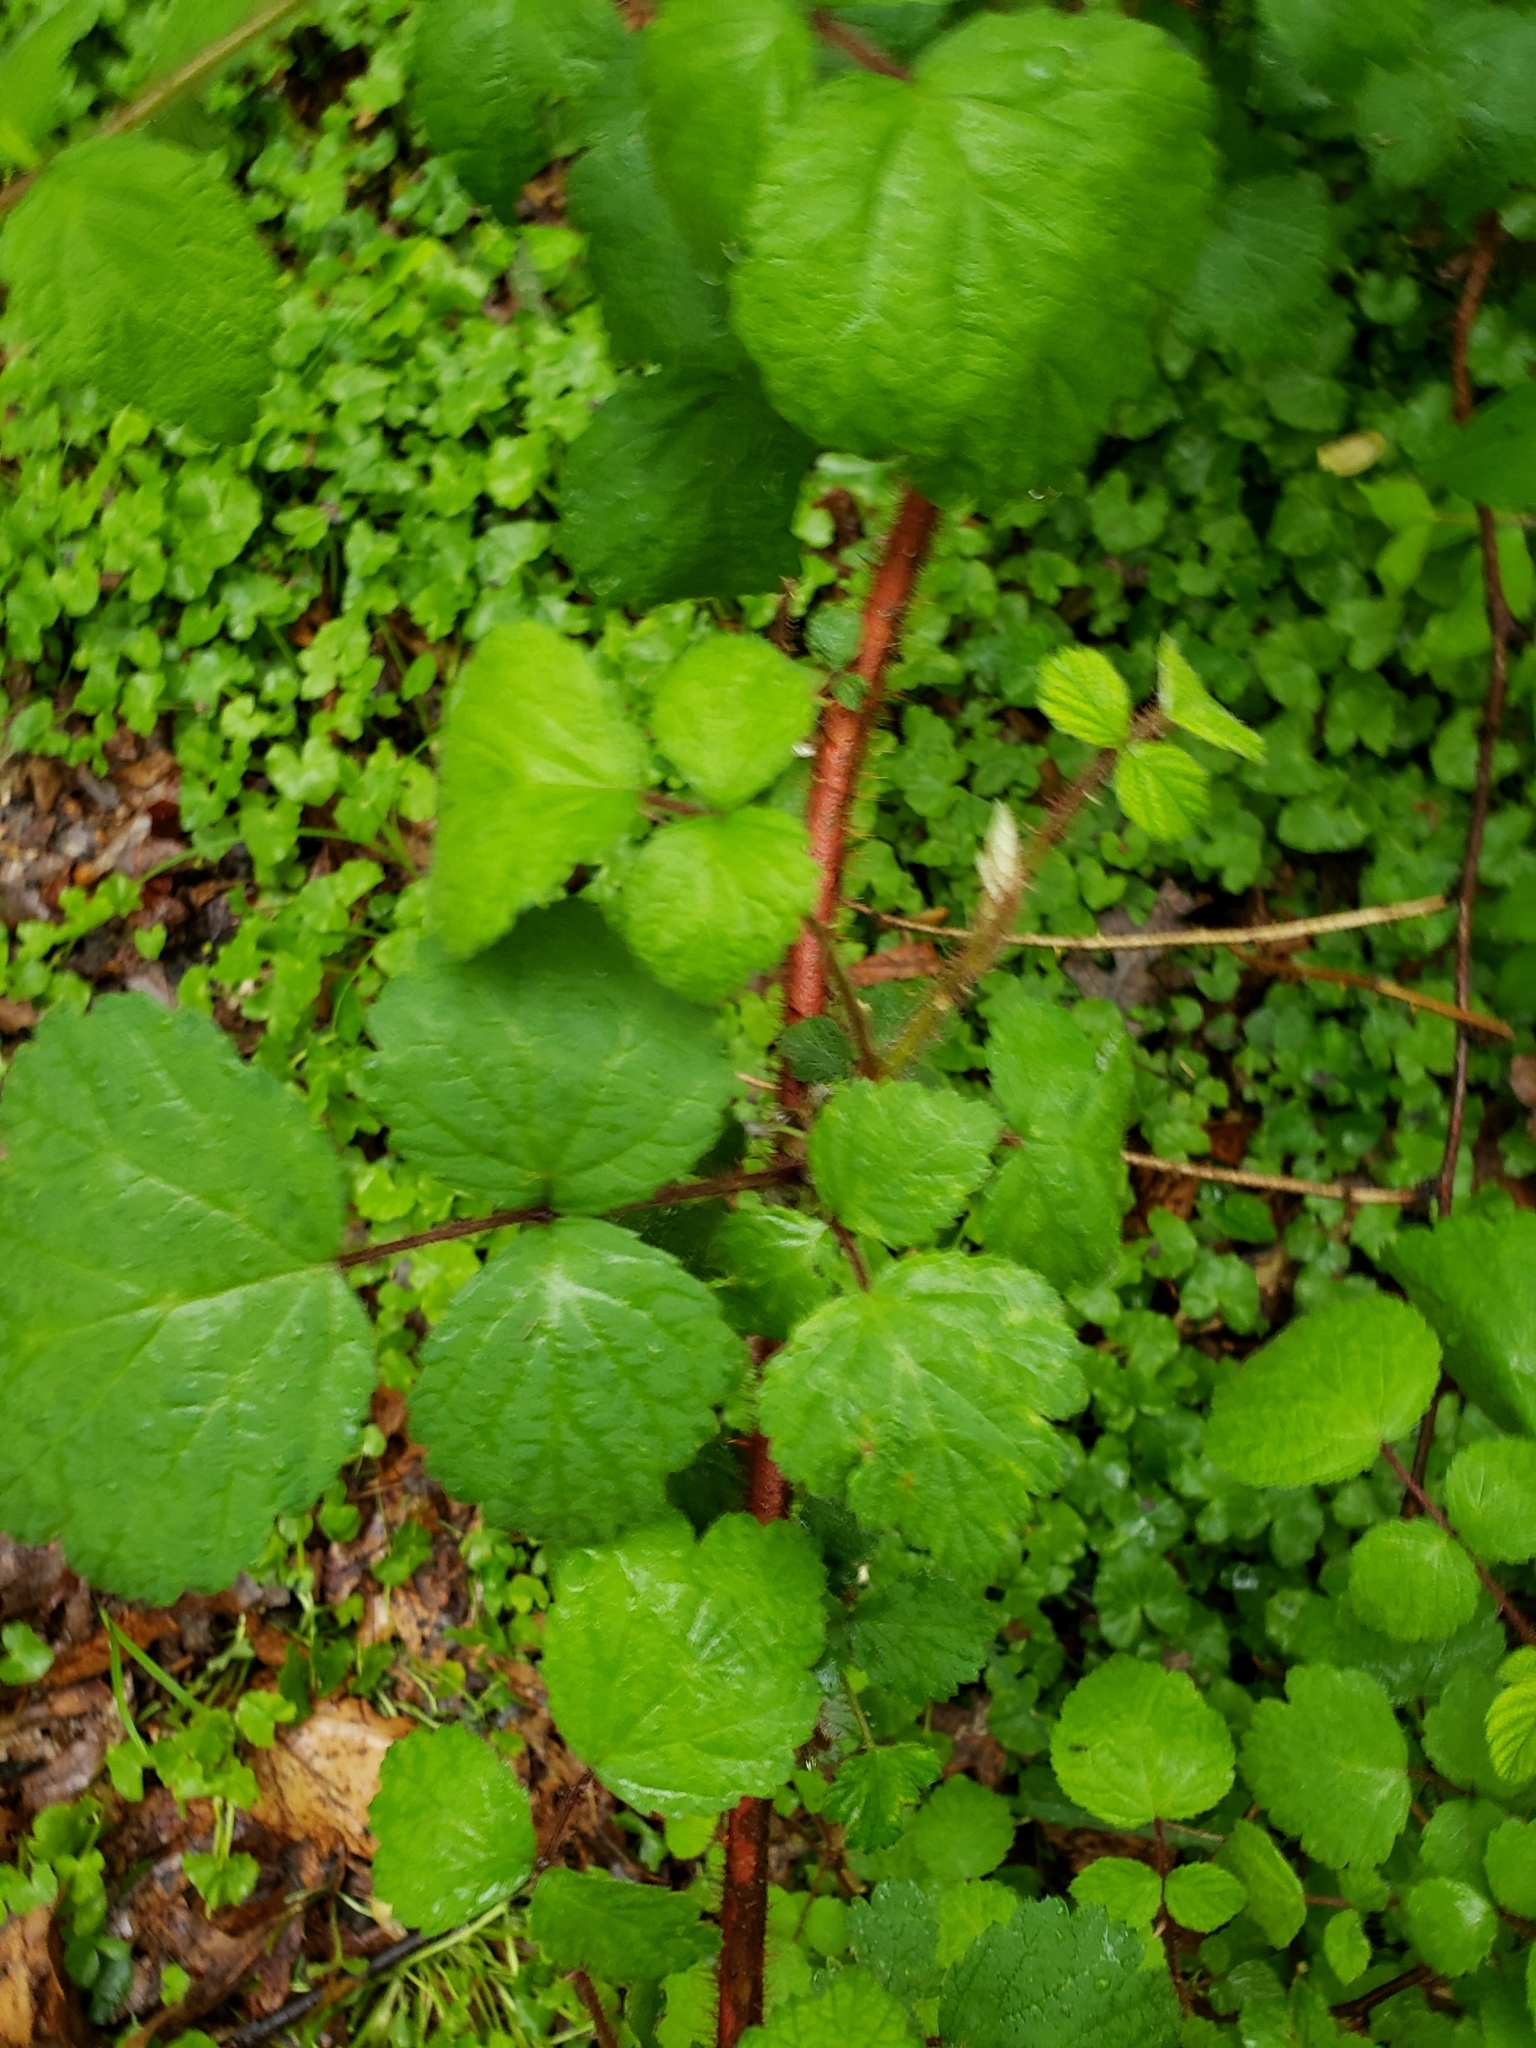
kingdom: Plantae
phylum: Tracheophyta
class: Magnoliopsida
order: Rosales
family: Rosaceae
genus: Rubus
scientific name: Rubus phoenicolasius
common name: Japanese wineberry
